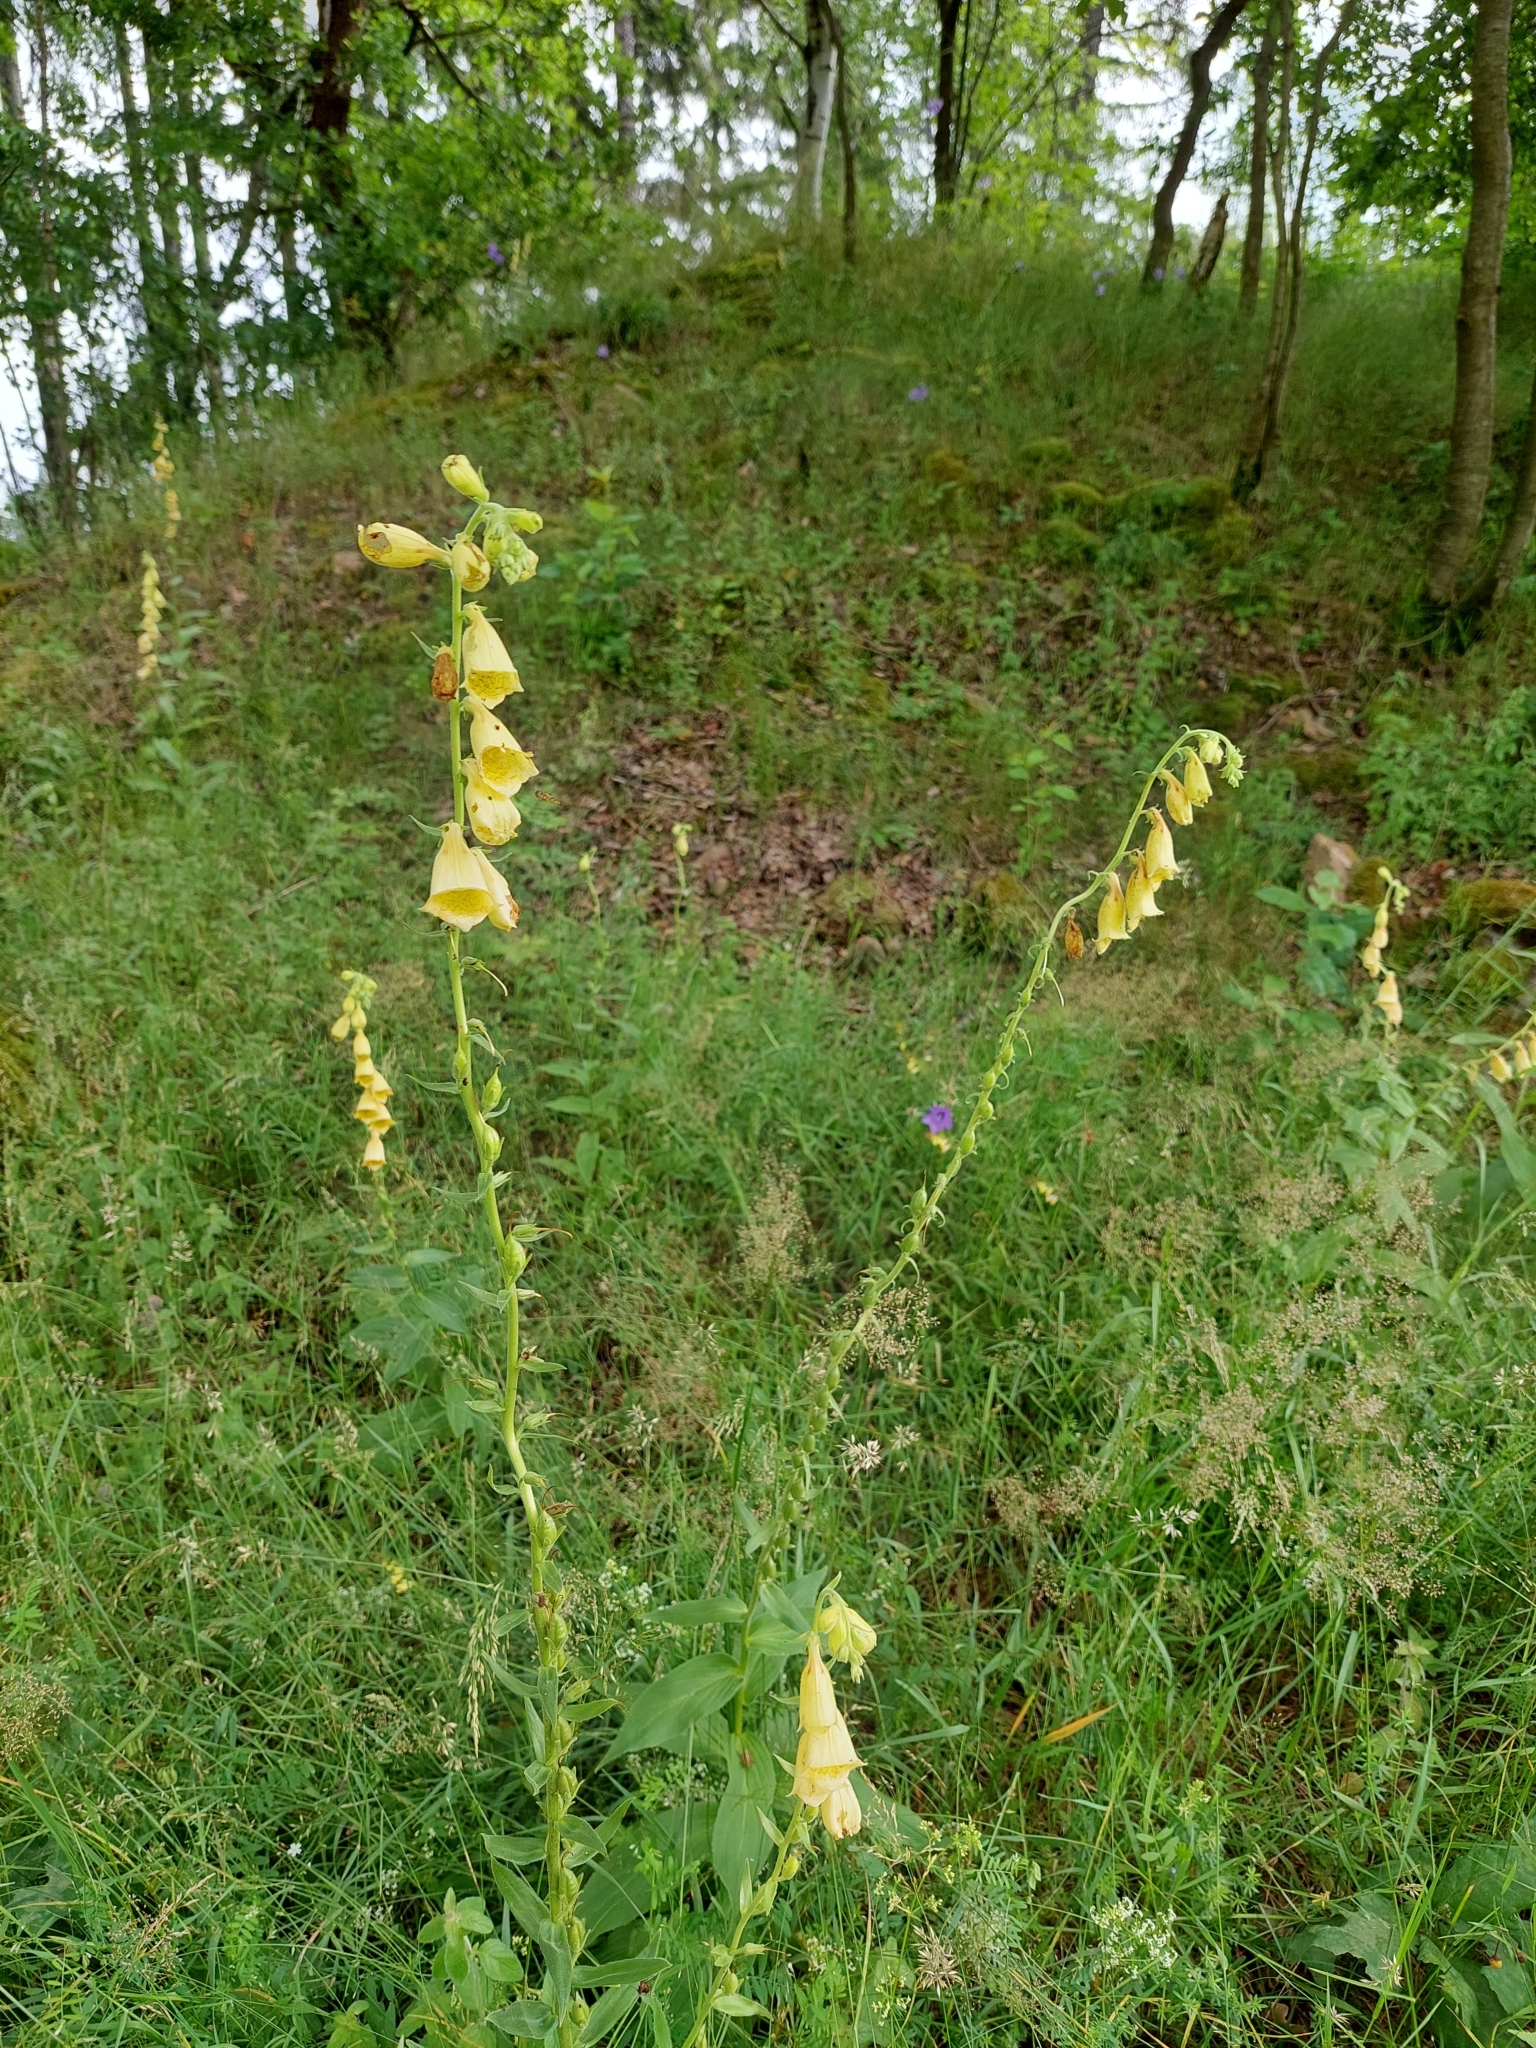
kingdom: Plantae
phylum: Tracheophyta
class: Magnoliopsida
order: Lamiales
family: Plantaginaceae
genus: Digitalis
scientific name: Digitalis grandiflora
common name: Yellow foxglove
